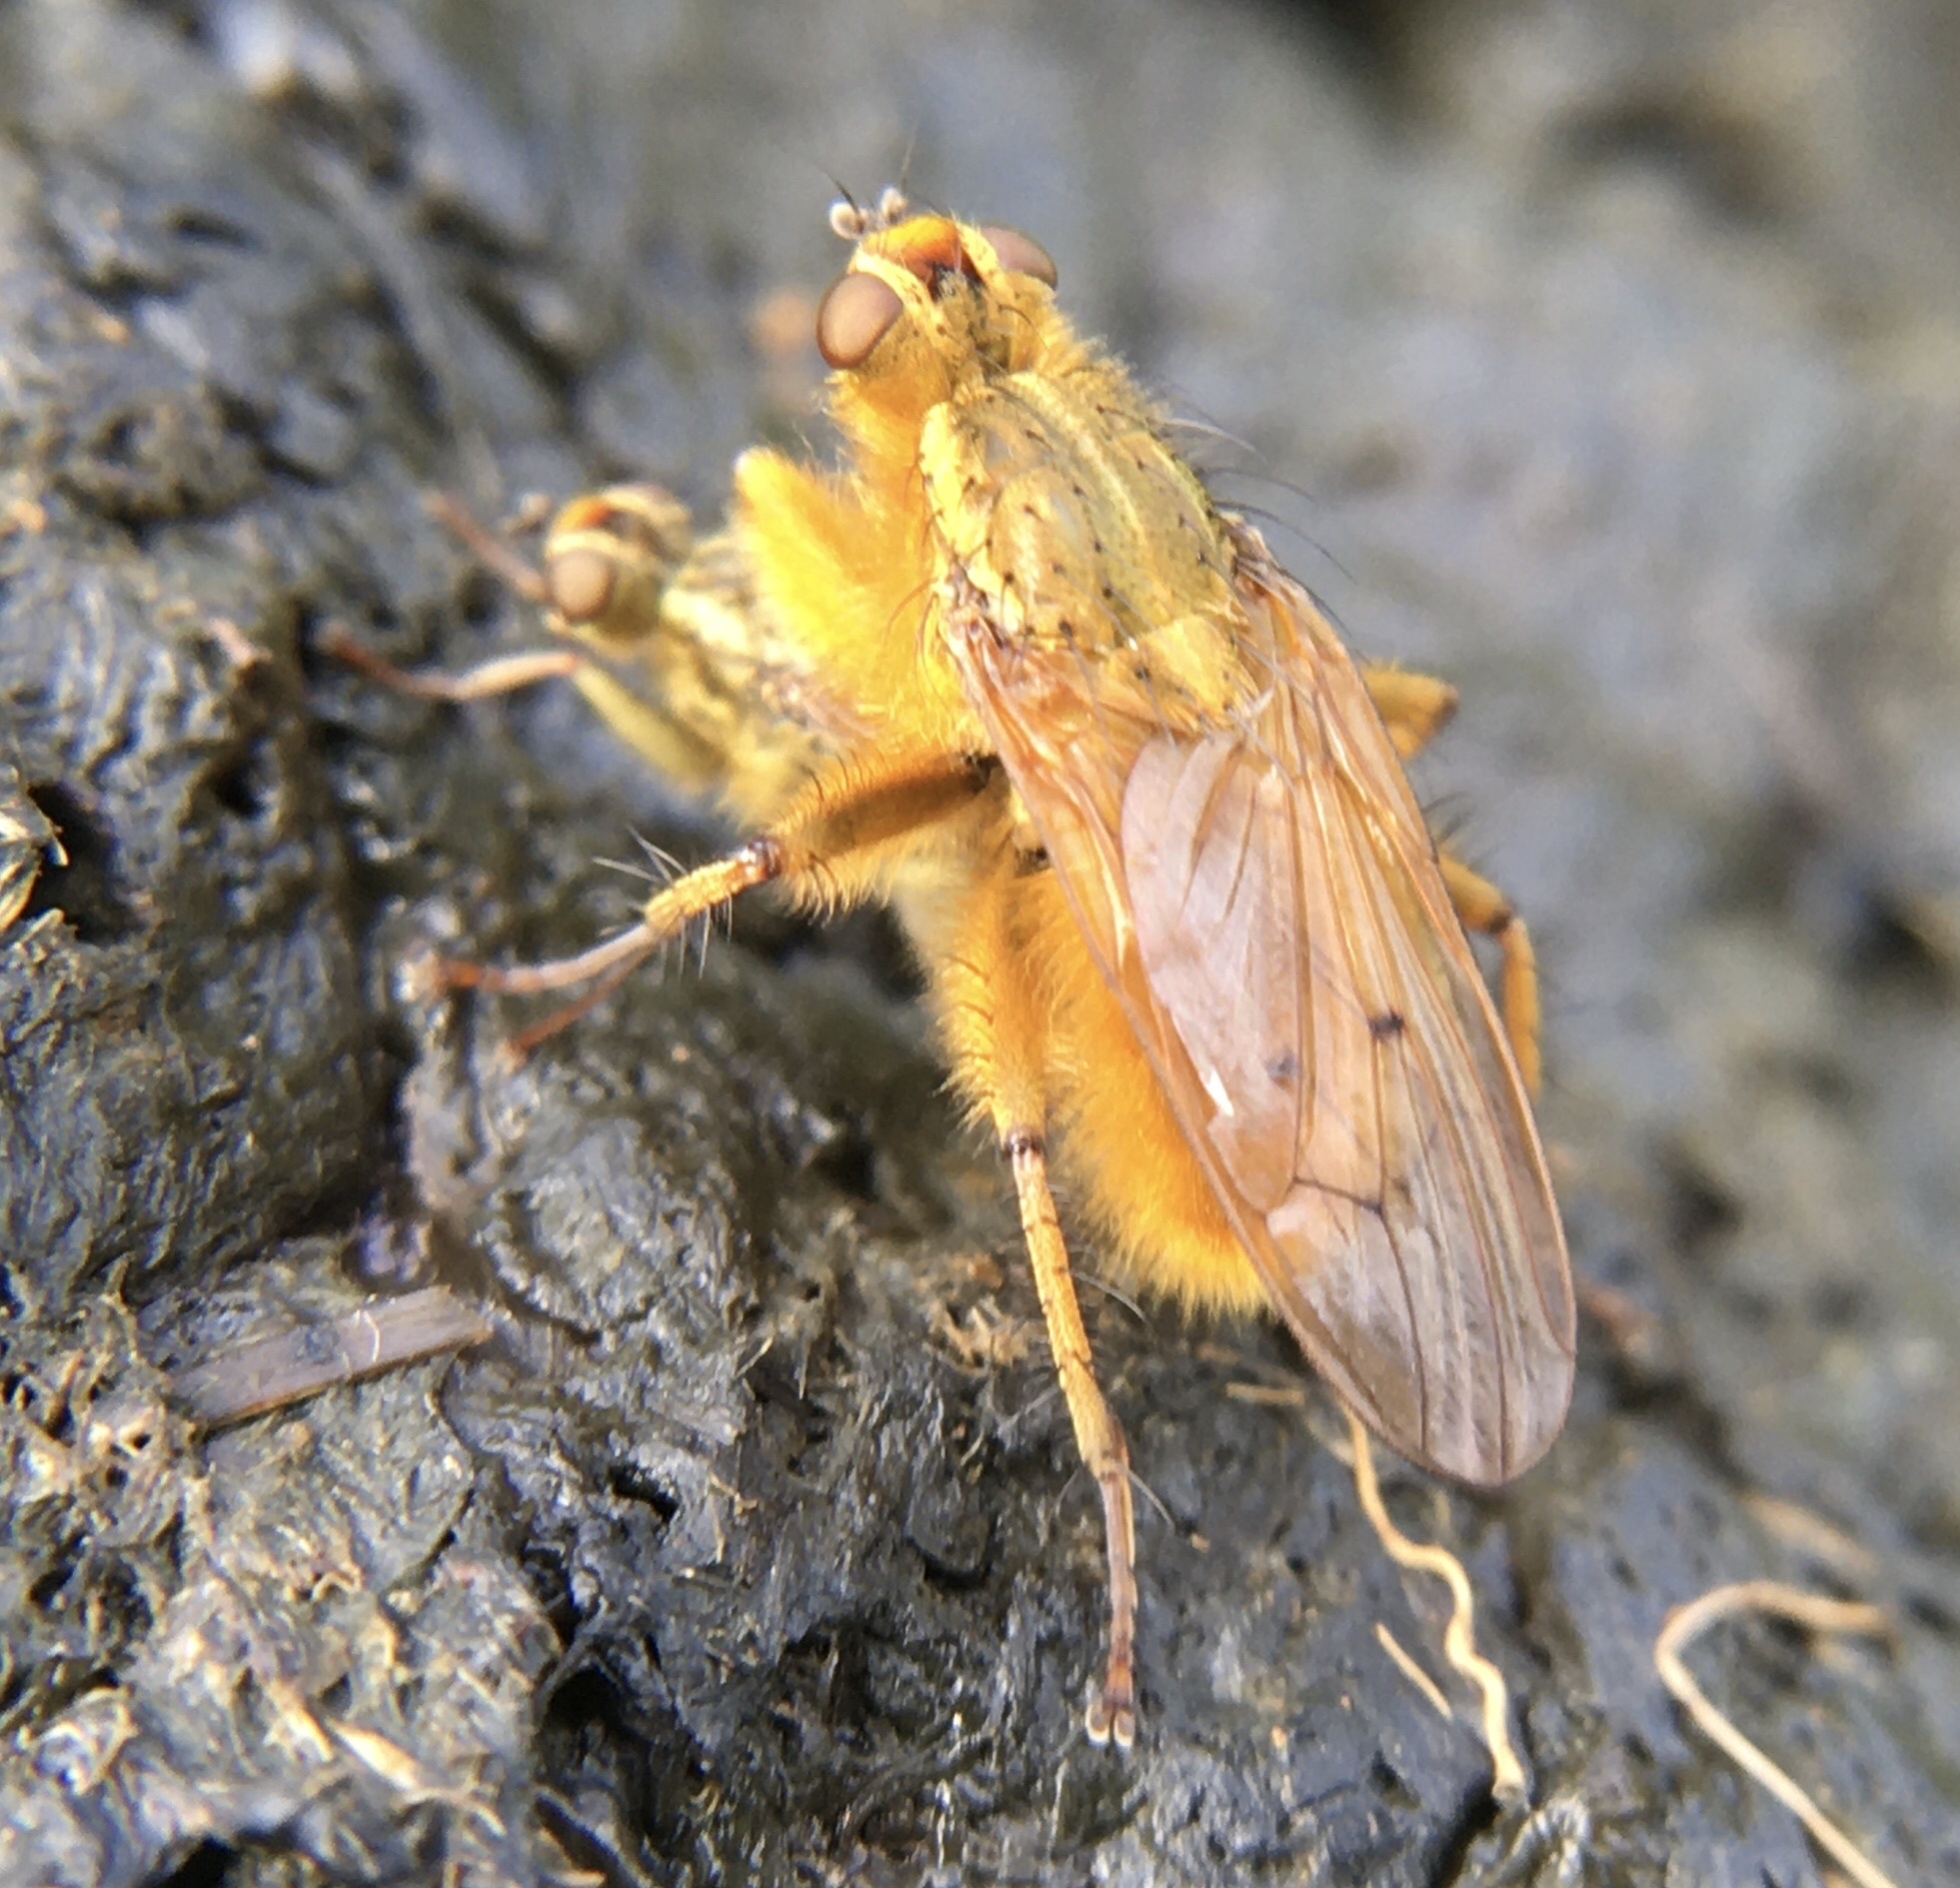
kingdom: Animalia
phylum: Arthropoda
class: Insecta
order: Diptera
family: Scathophagidae
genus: Scathophaga
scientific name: Scathophaga stercoraria
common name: Yellow dung fly
